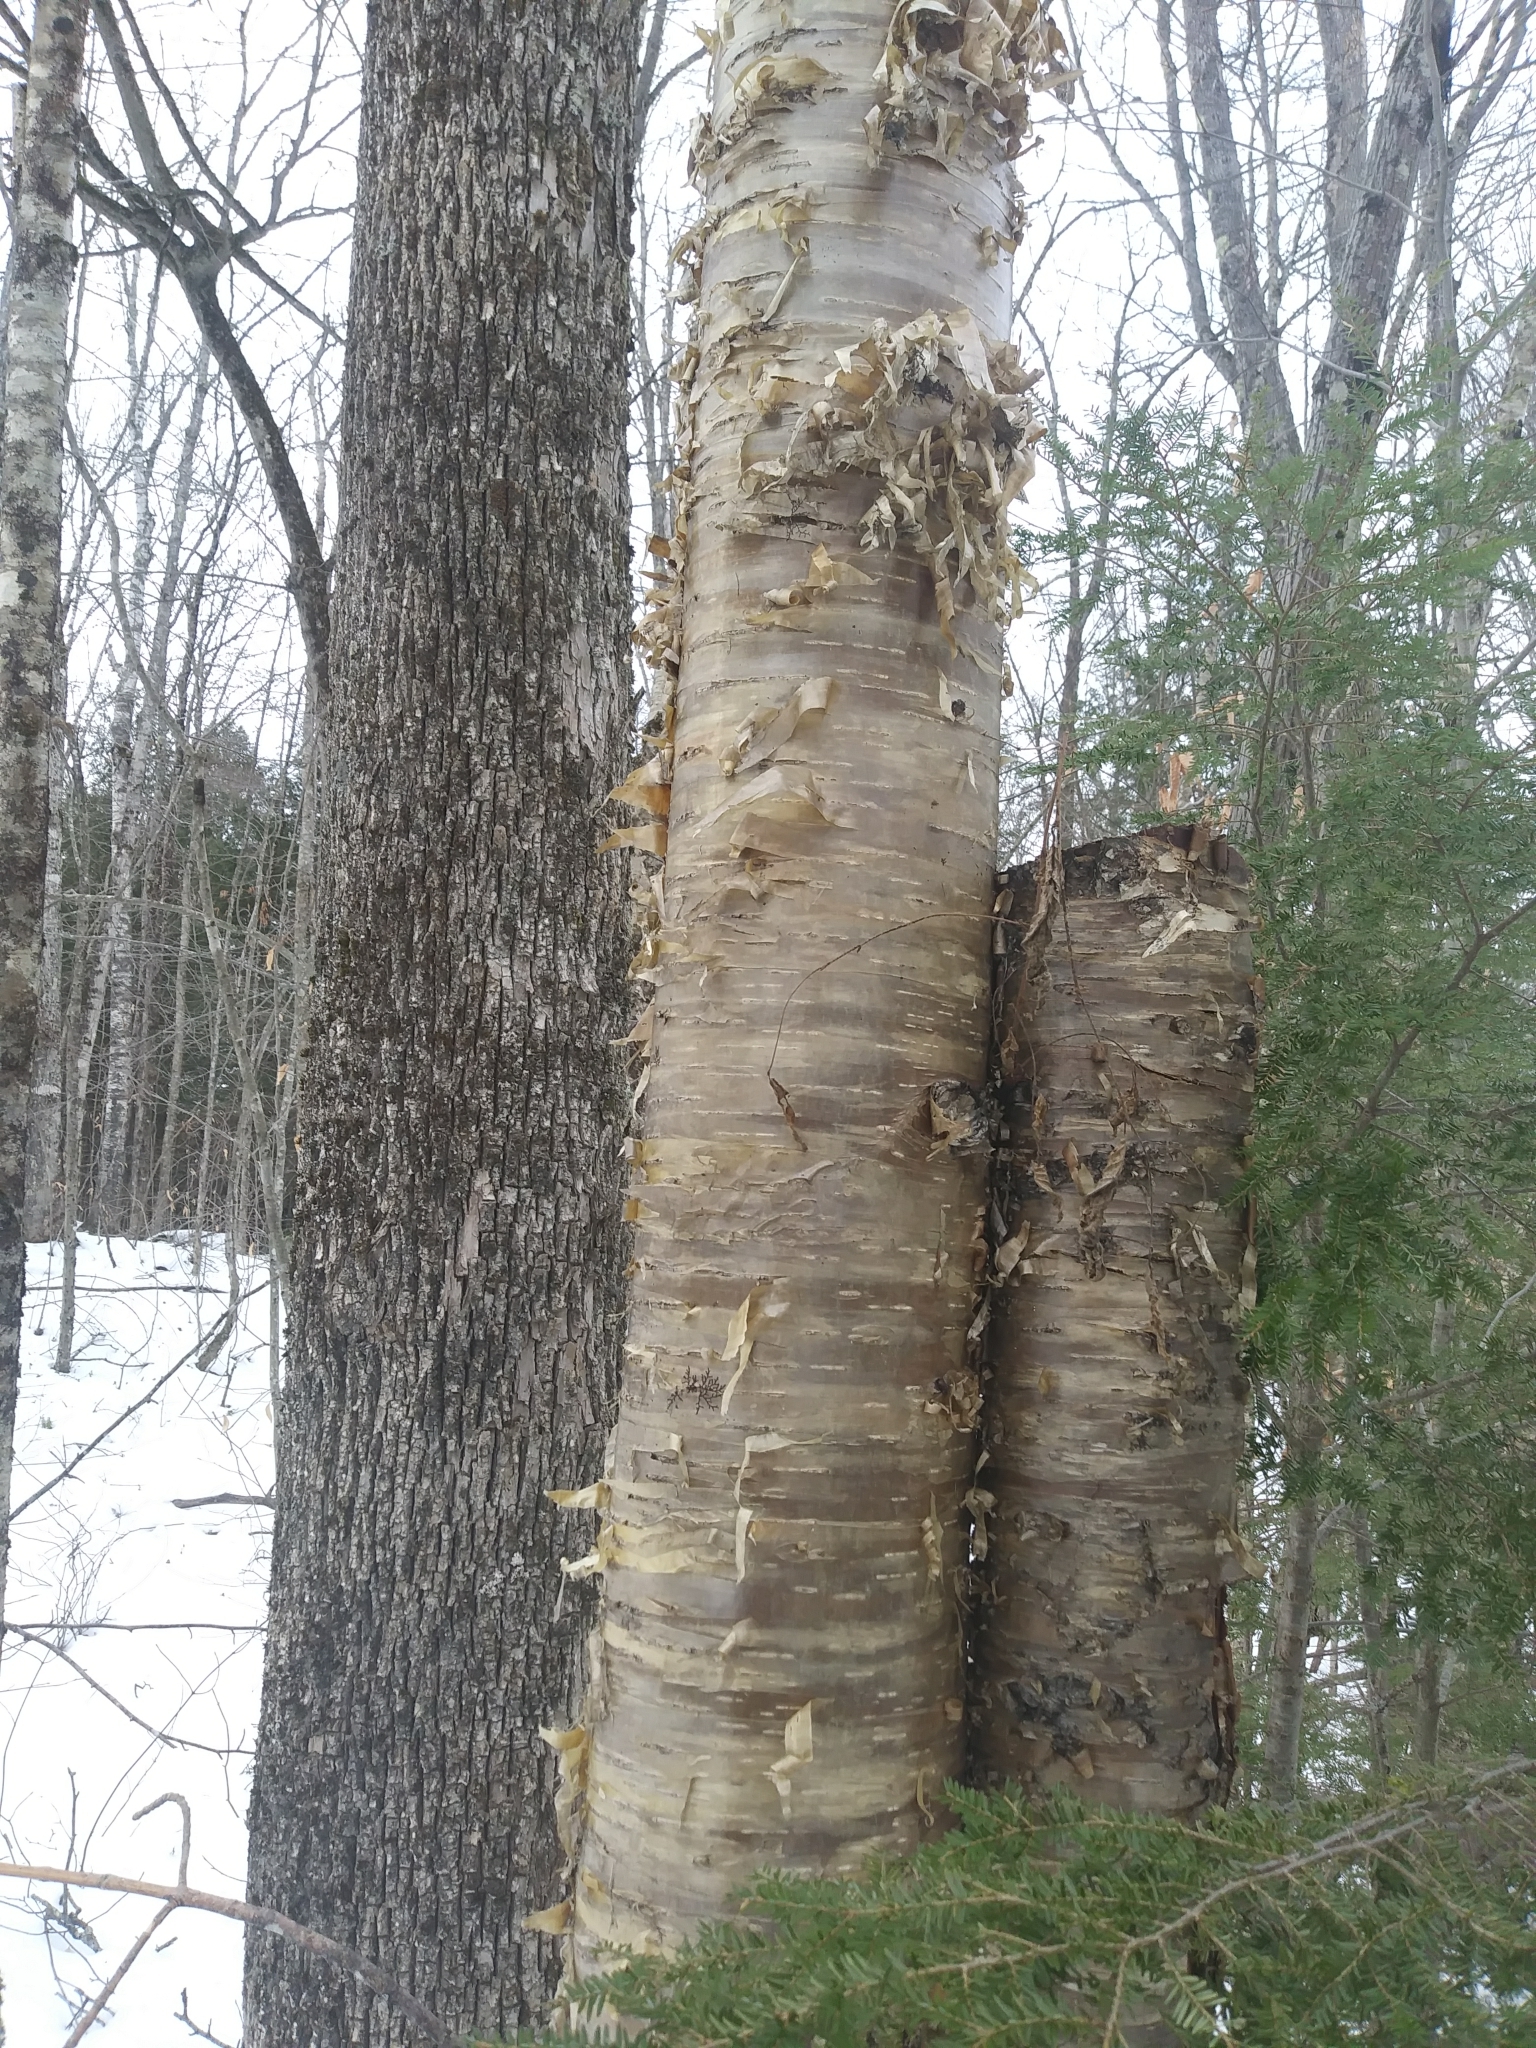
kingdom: Plantae
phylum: Tracheophyta
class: Magnoliopsida
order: Fagales
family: Betulaceae
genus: Betula
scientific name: Betula alleghaniensis
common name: Yellow birch
